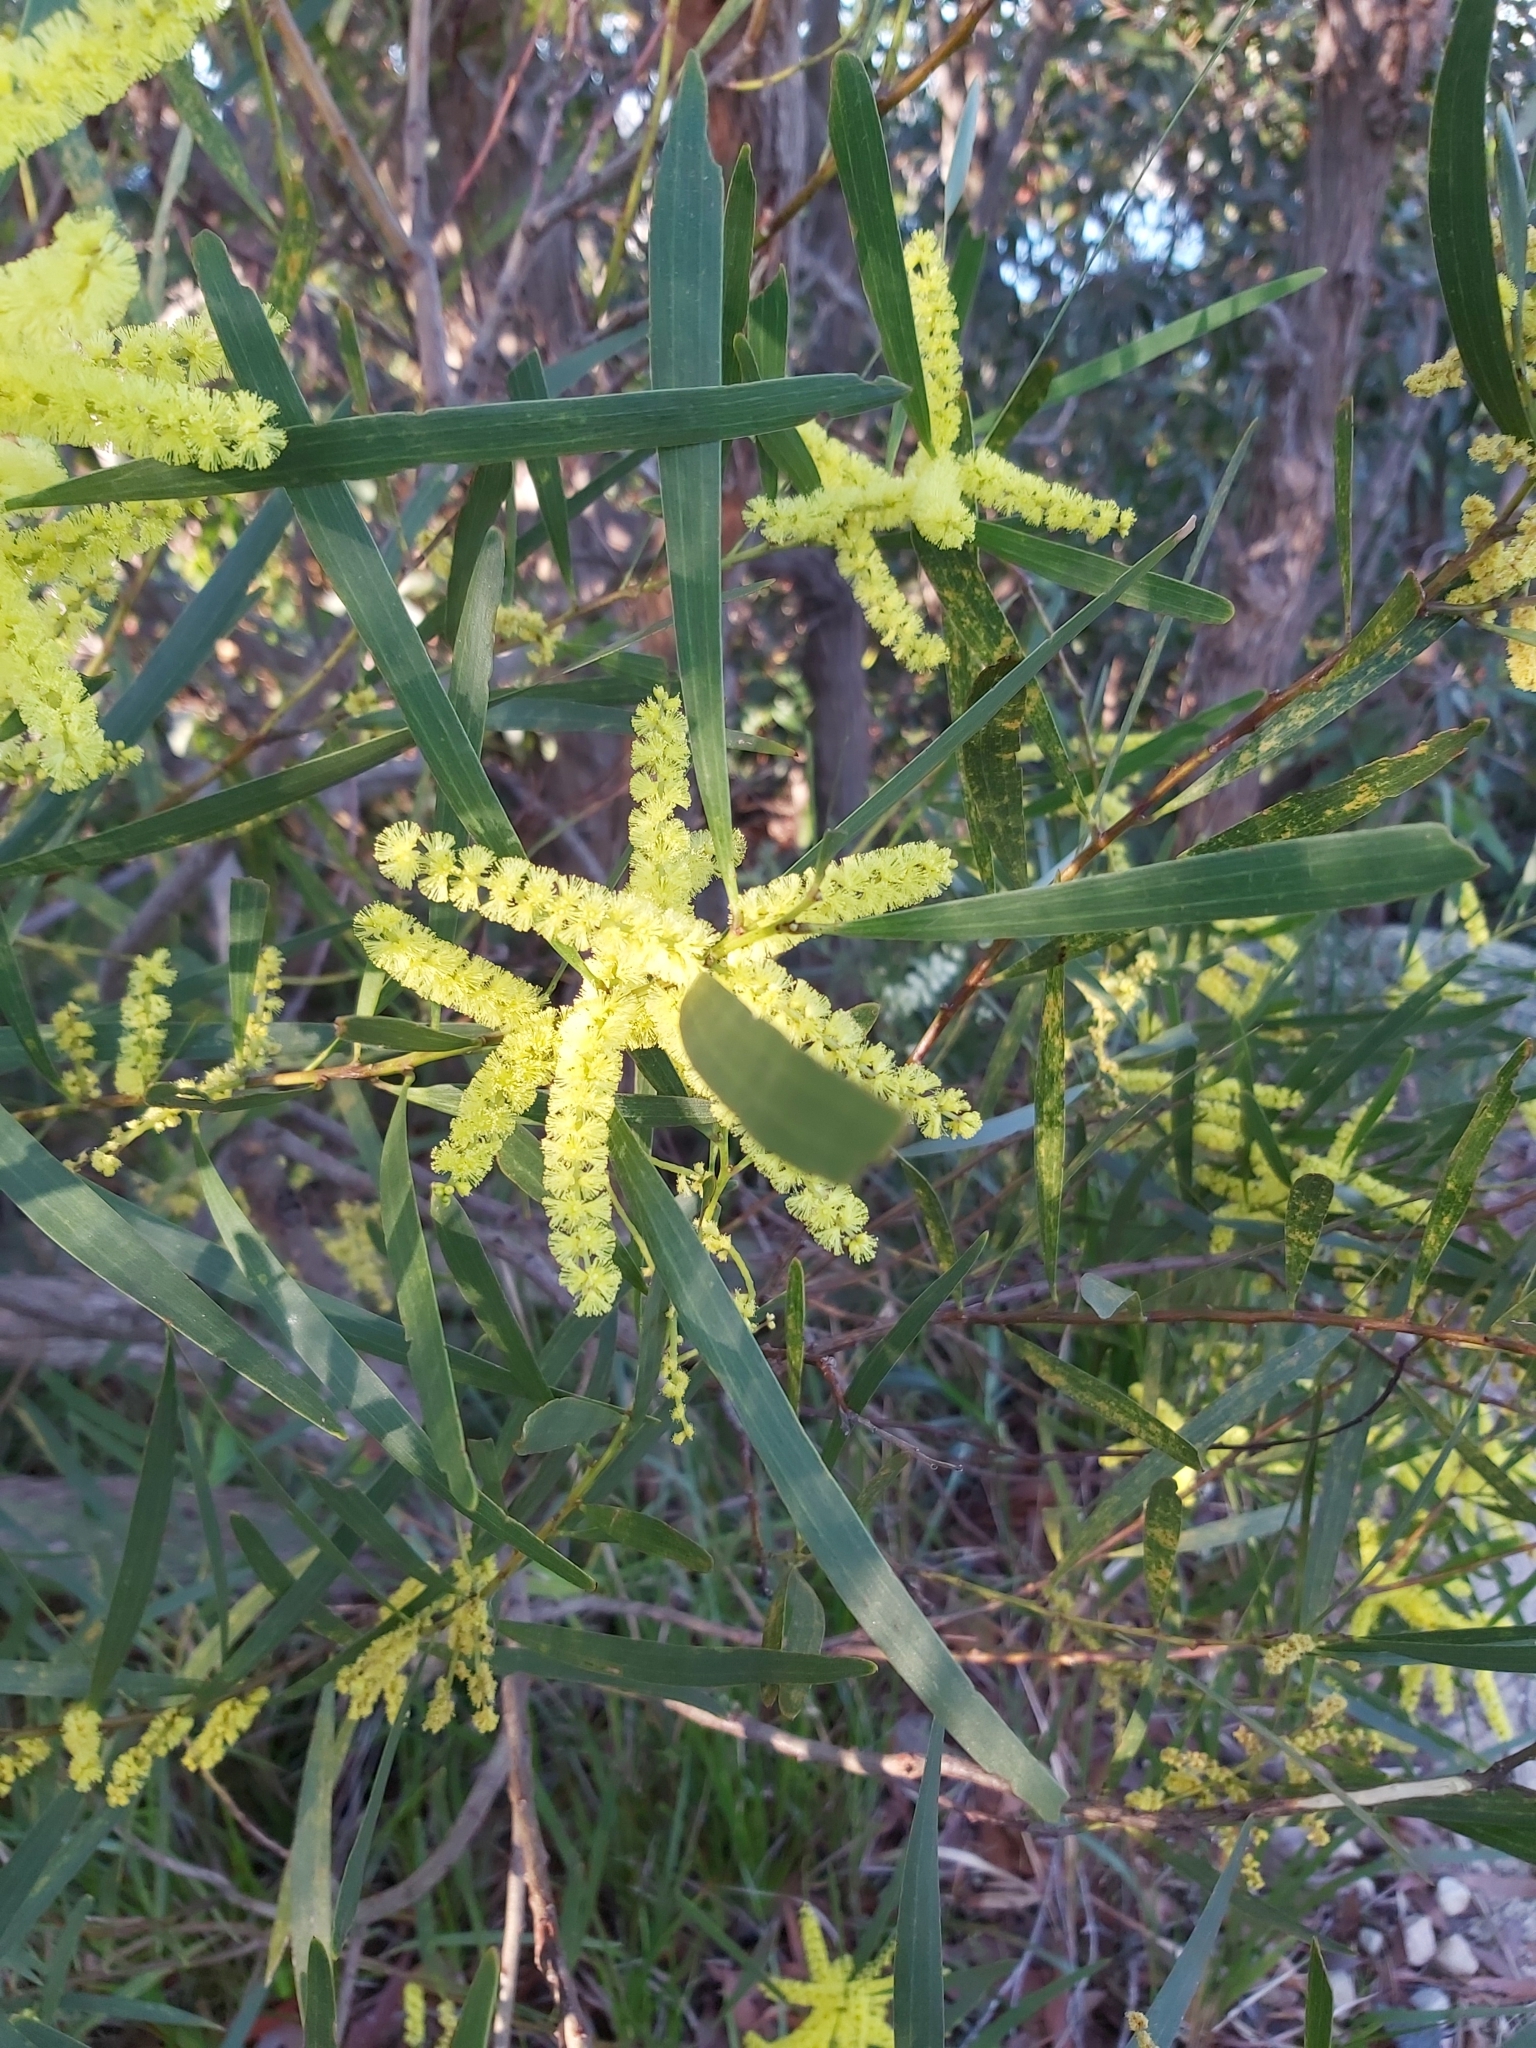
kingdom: Plantae
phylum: Tracheophyta
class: Magnoliopsida
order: Fabales
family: Fabaceae
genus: Acacia
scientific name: Acacia longifolia
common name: Sydney golden wattle
